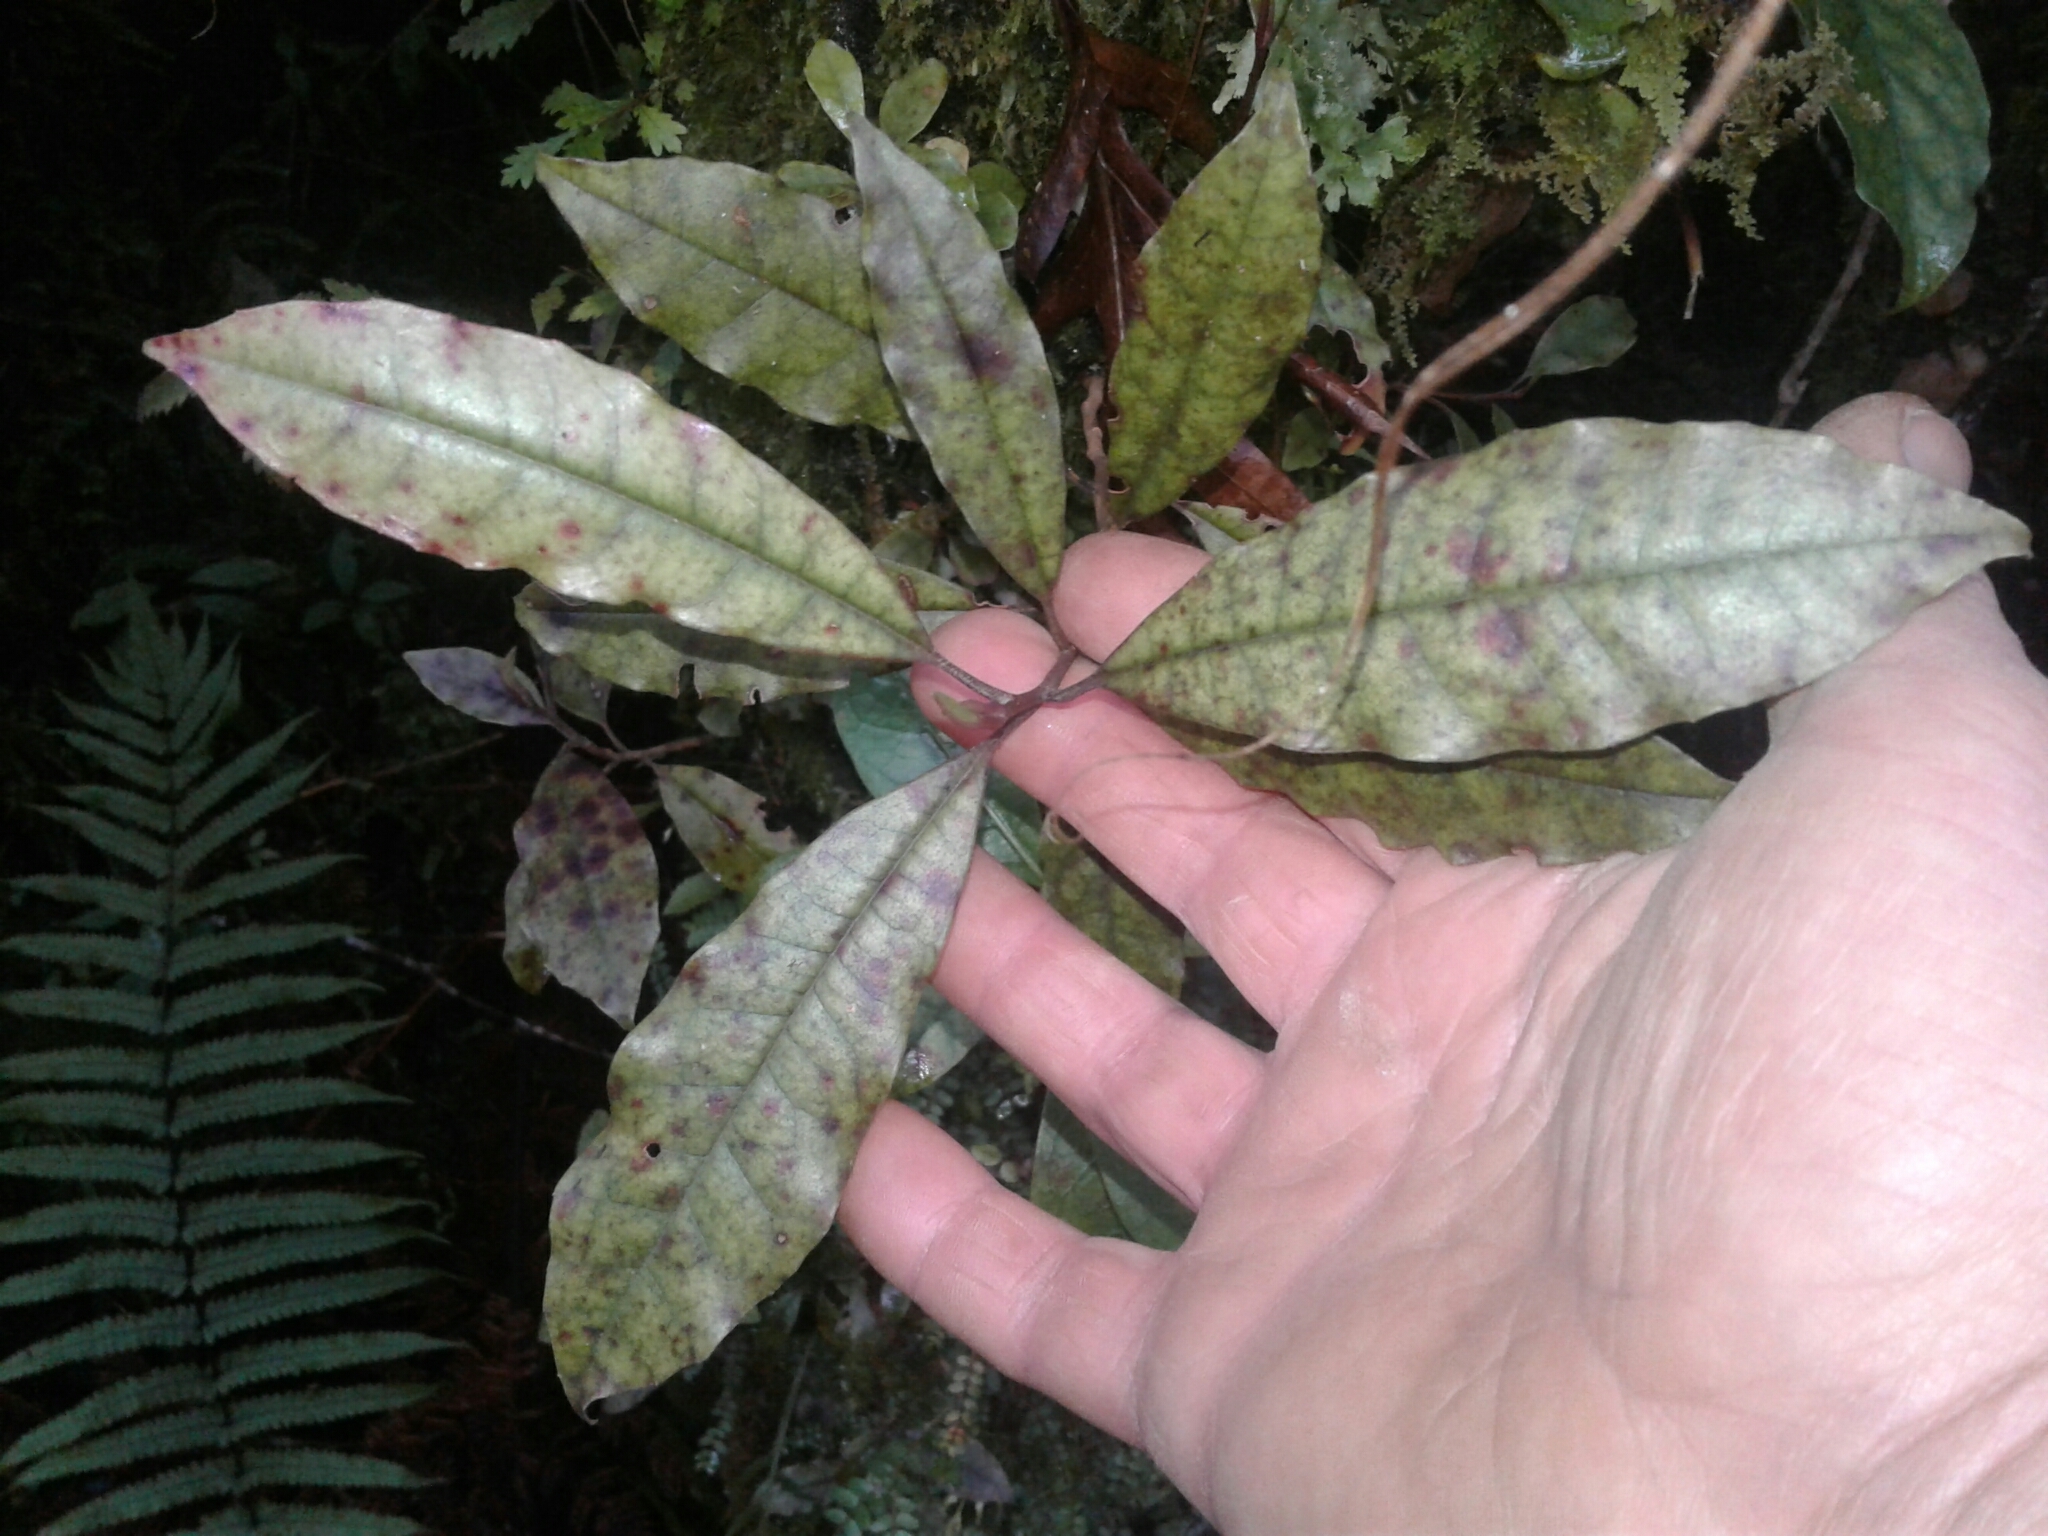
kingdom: Plantae
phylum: Tracheophyta
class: Magnoliopsida
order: Paracryphiales
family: Paracryphiaceae
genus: Quintinia
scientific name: Quintinia serrata
